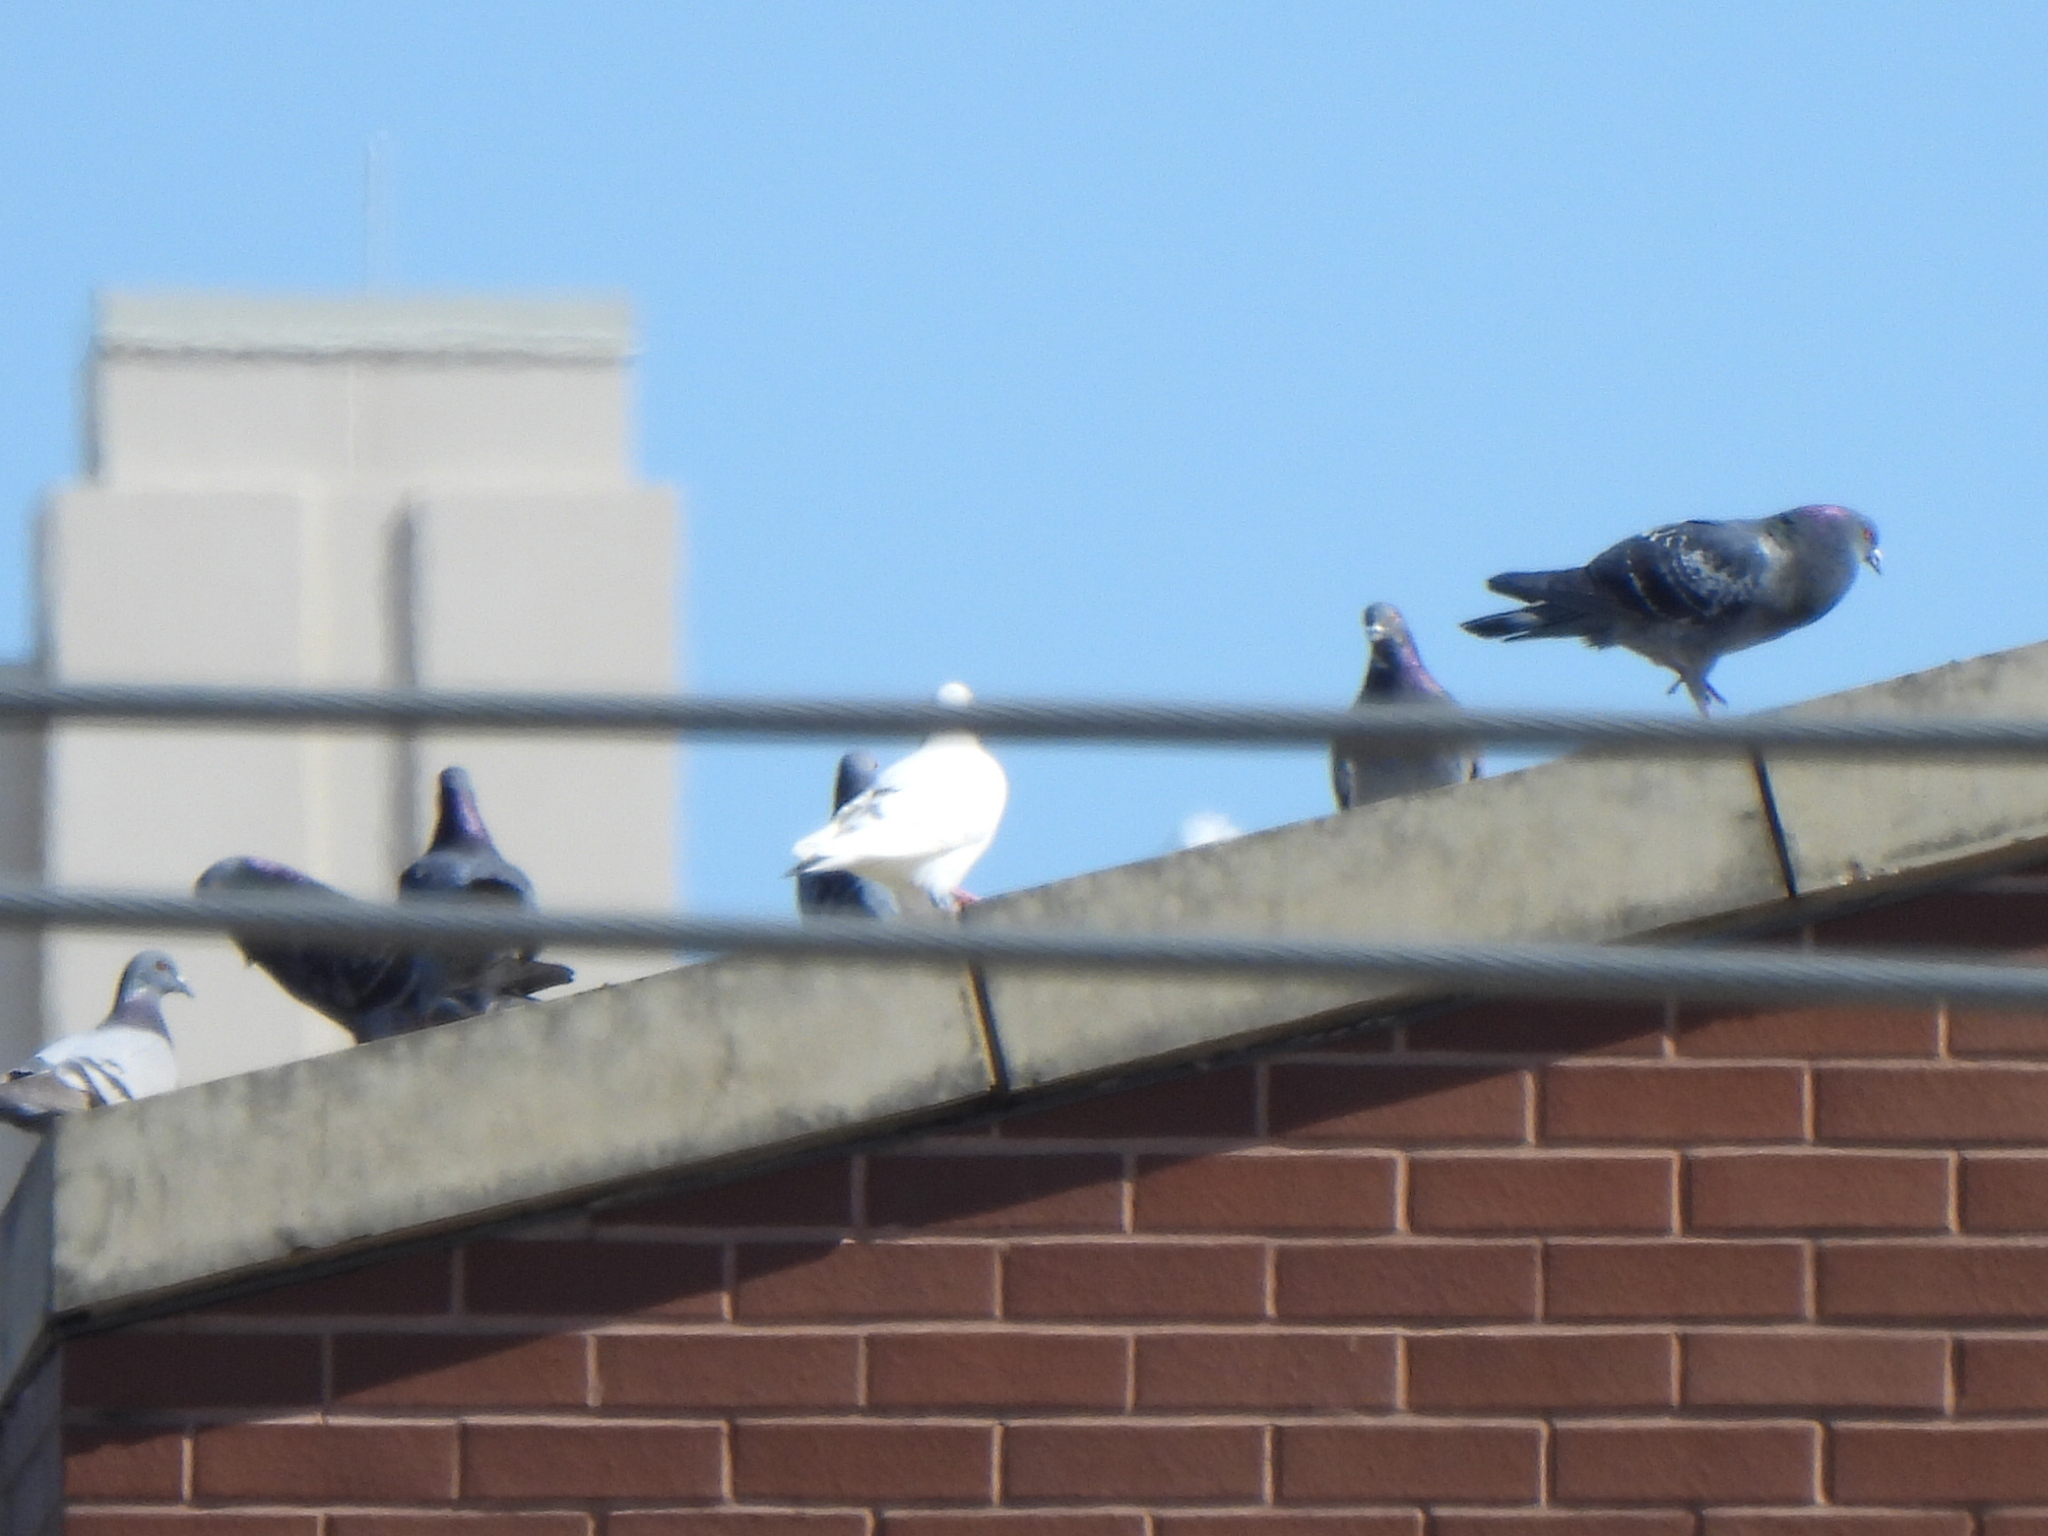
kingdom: Animalia
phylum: Chordata
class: Aves
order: Columbiformes
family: Columbidae
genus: Columba
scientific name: Columba livia
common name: Rock pigeon
